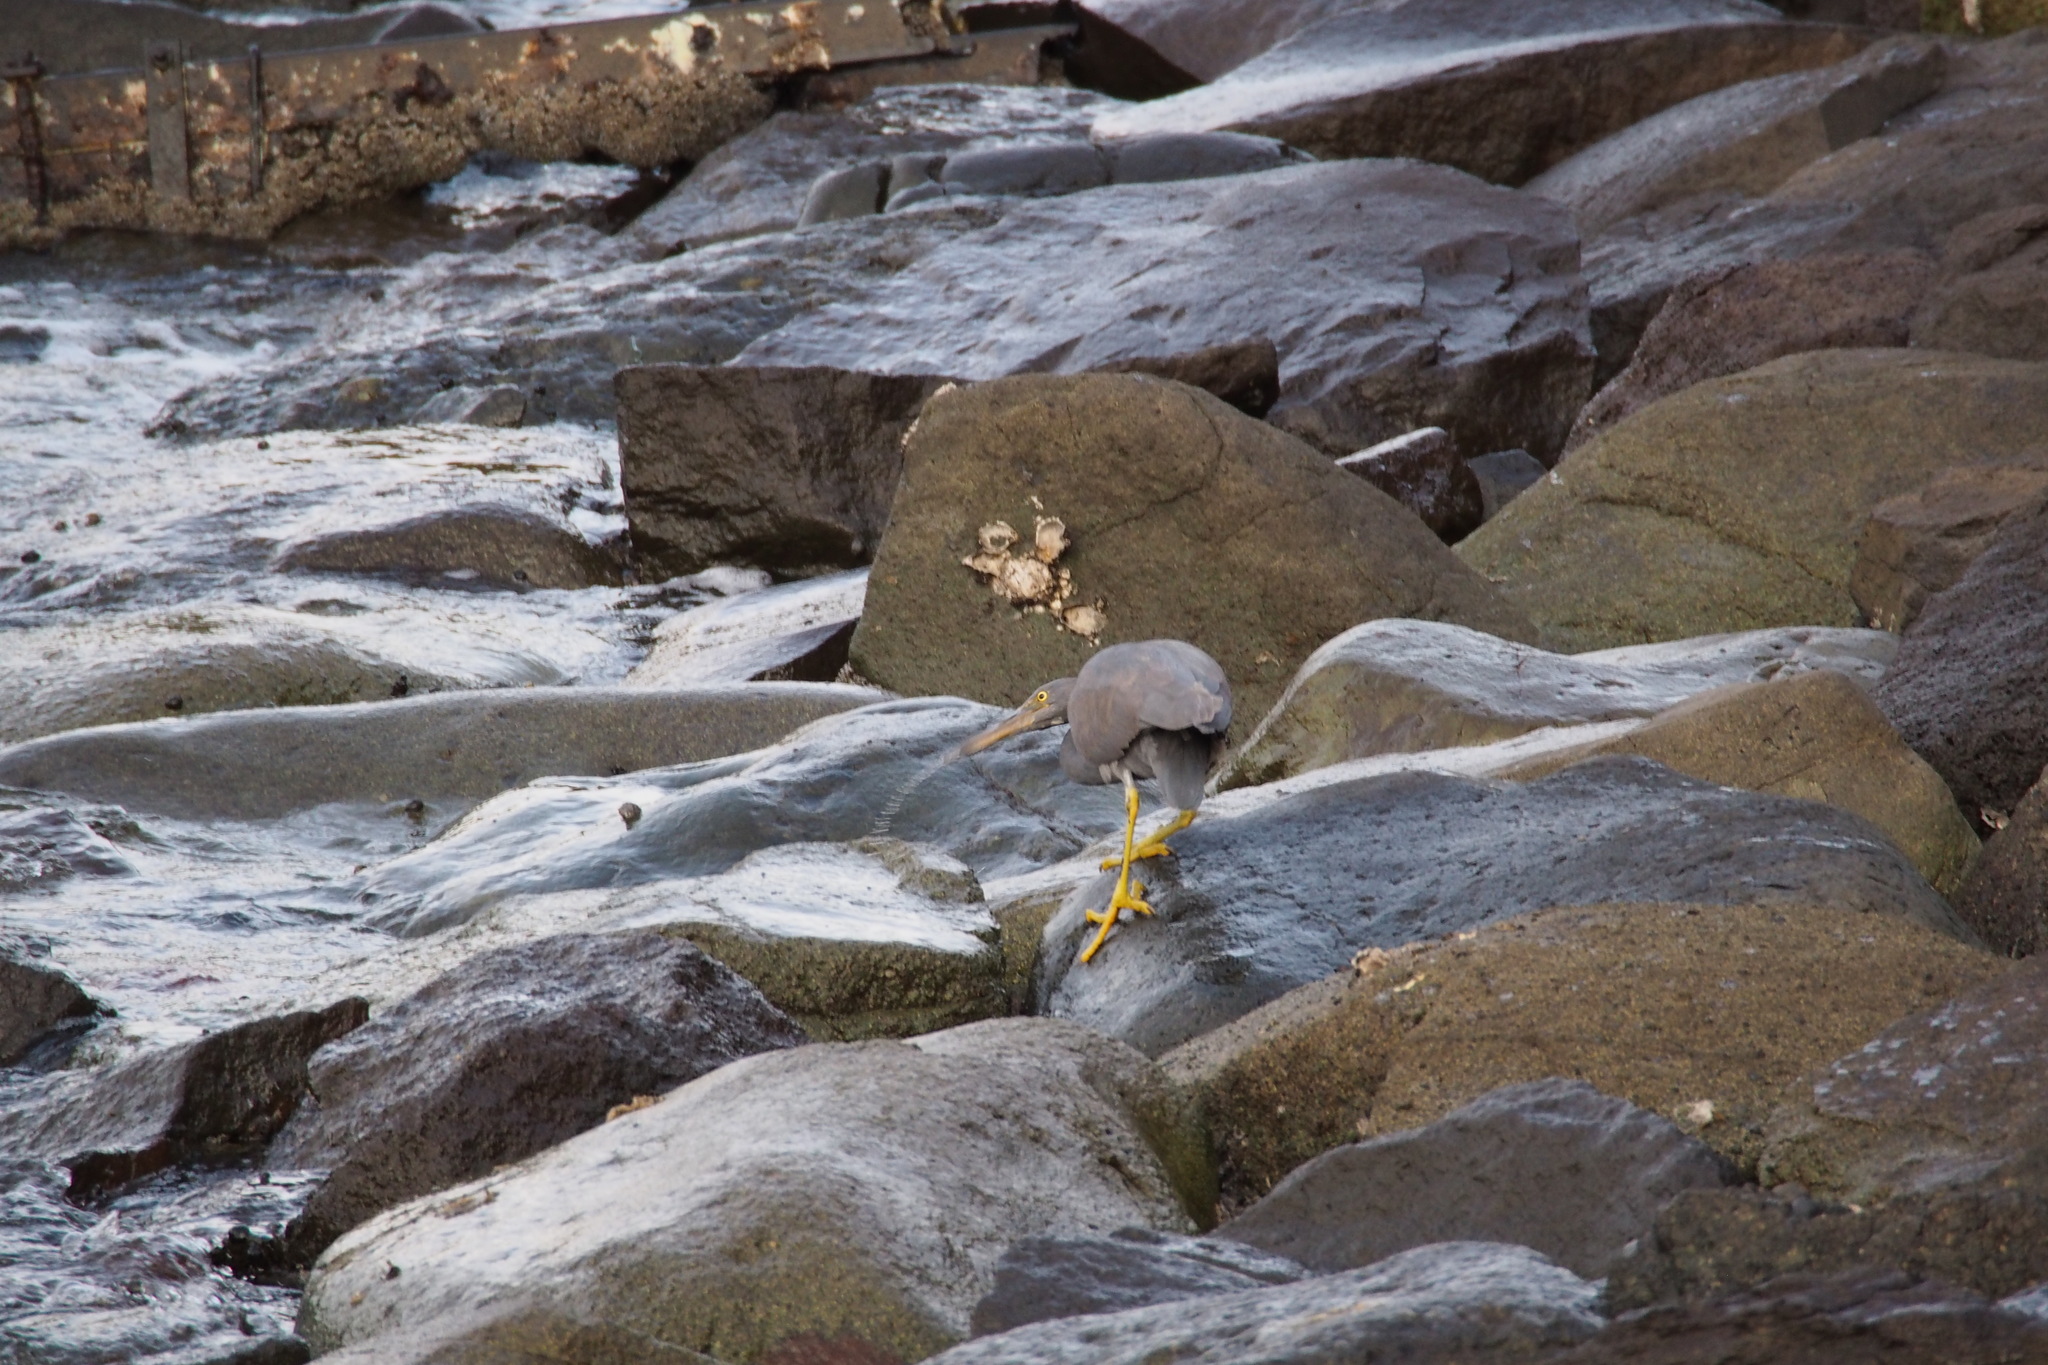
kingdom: Animalia
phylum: Chordata
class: Aves
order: Pelecaniformes
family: Ardeidae
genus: Egretta
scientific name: Egretta sacra
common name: Pacific reef heron
